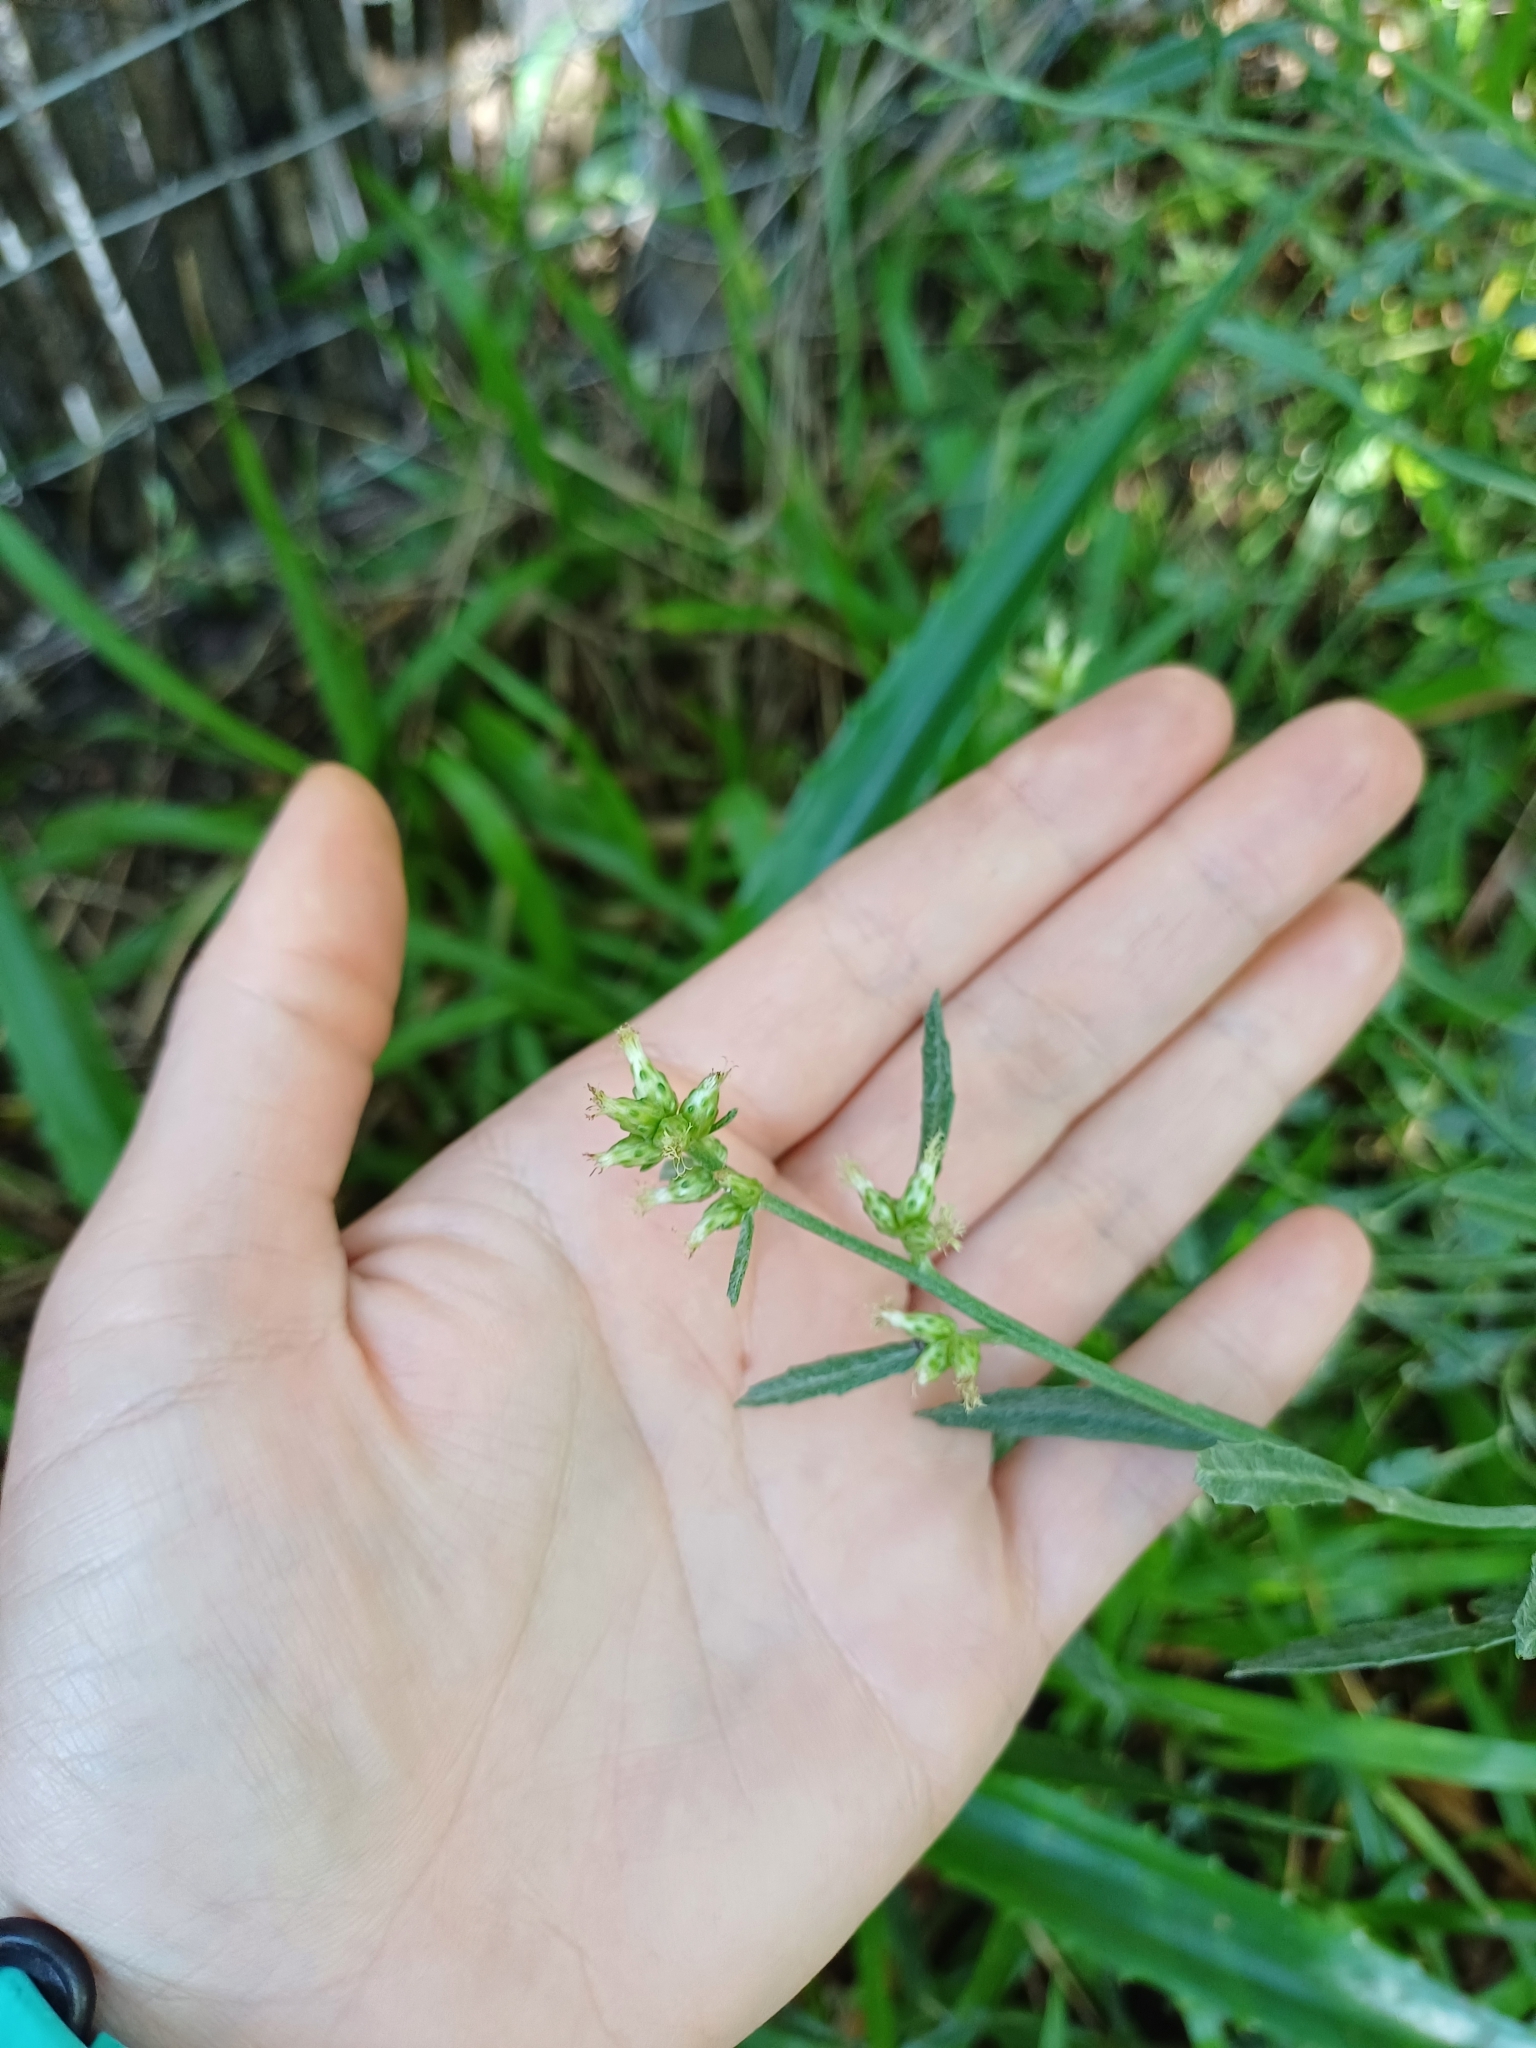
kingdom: Plantae
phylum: Tracheophyta
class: Magnoliopsida
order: Asterales
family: Asteraceae
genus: Baccharis
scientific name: Baccharis spicata
